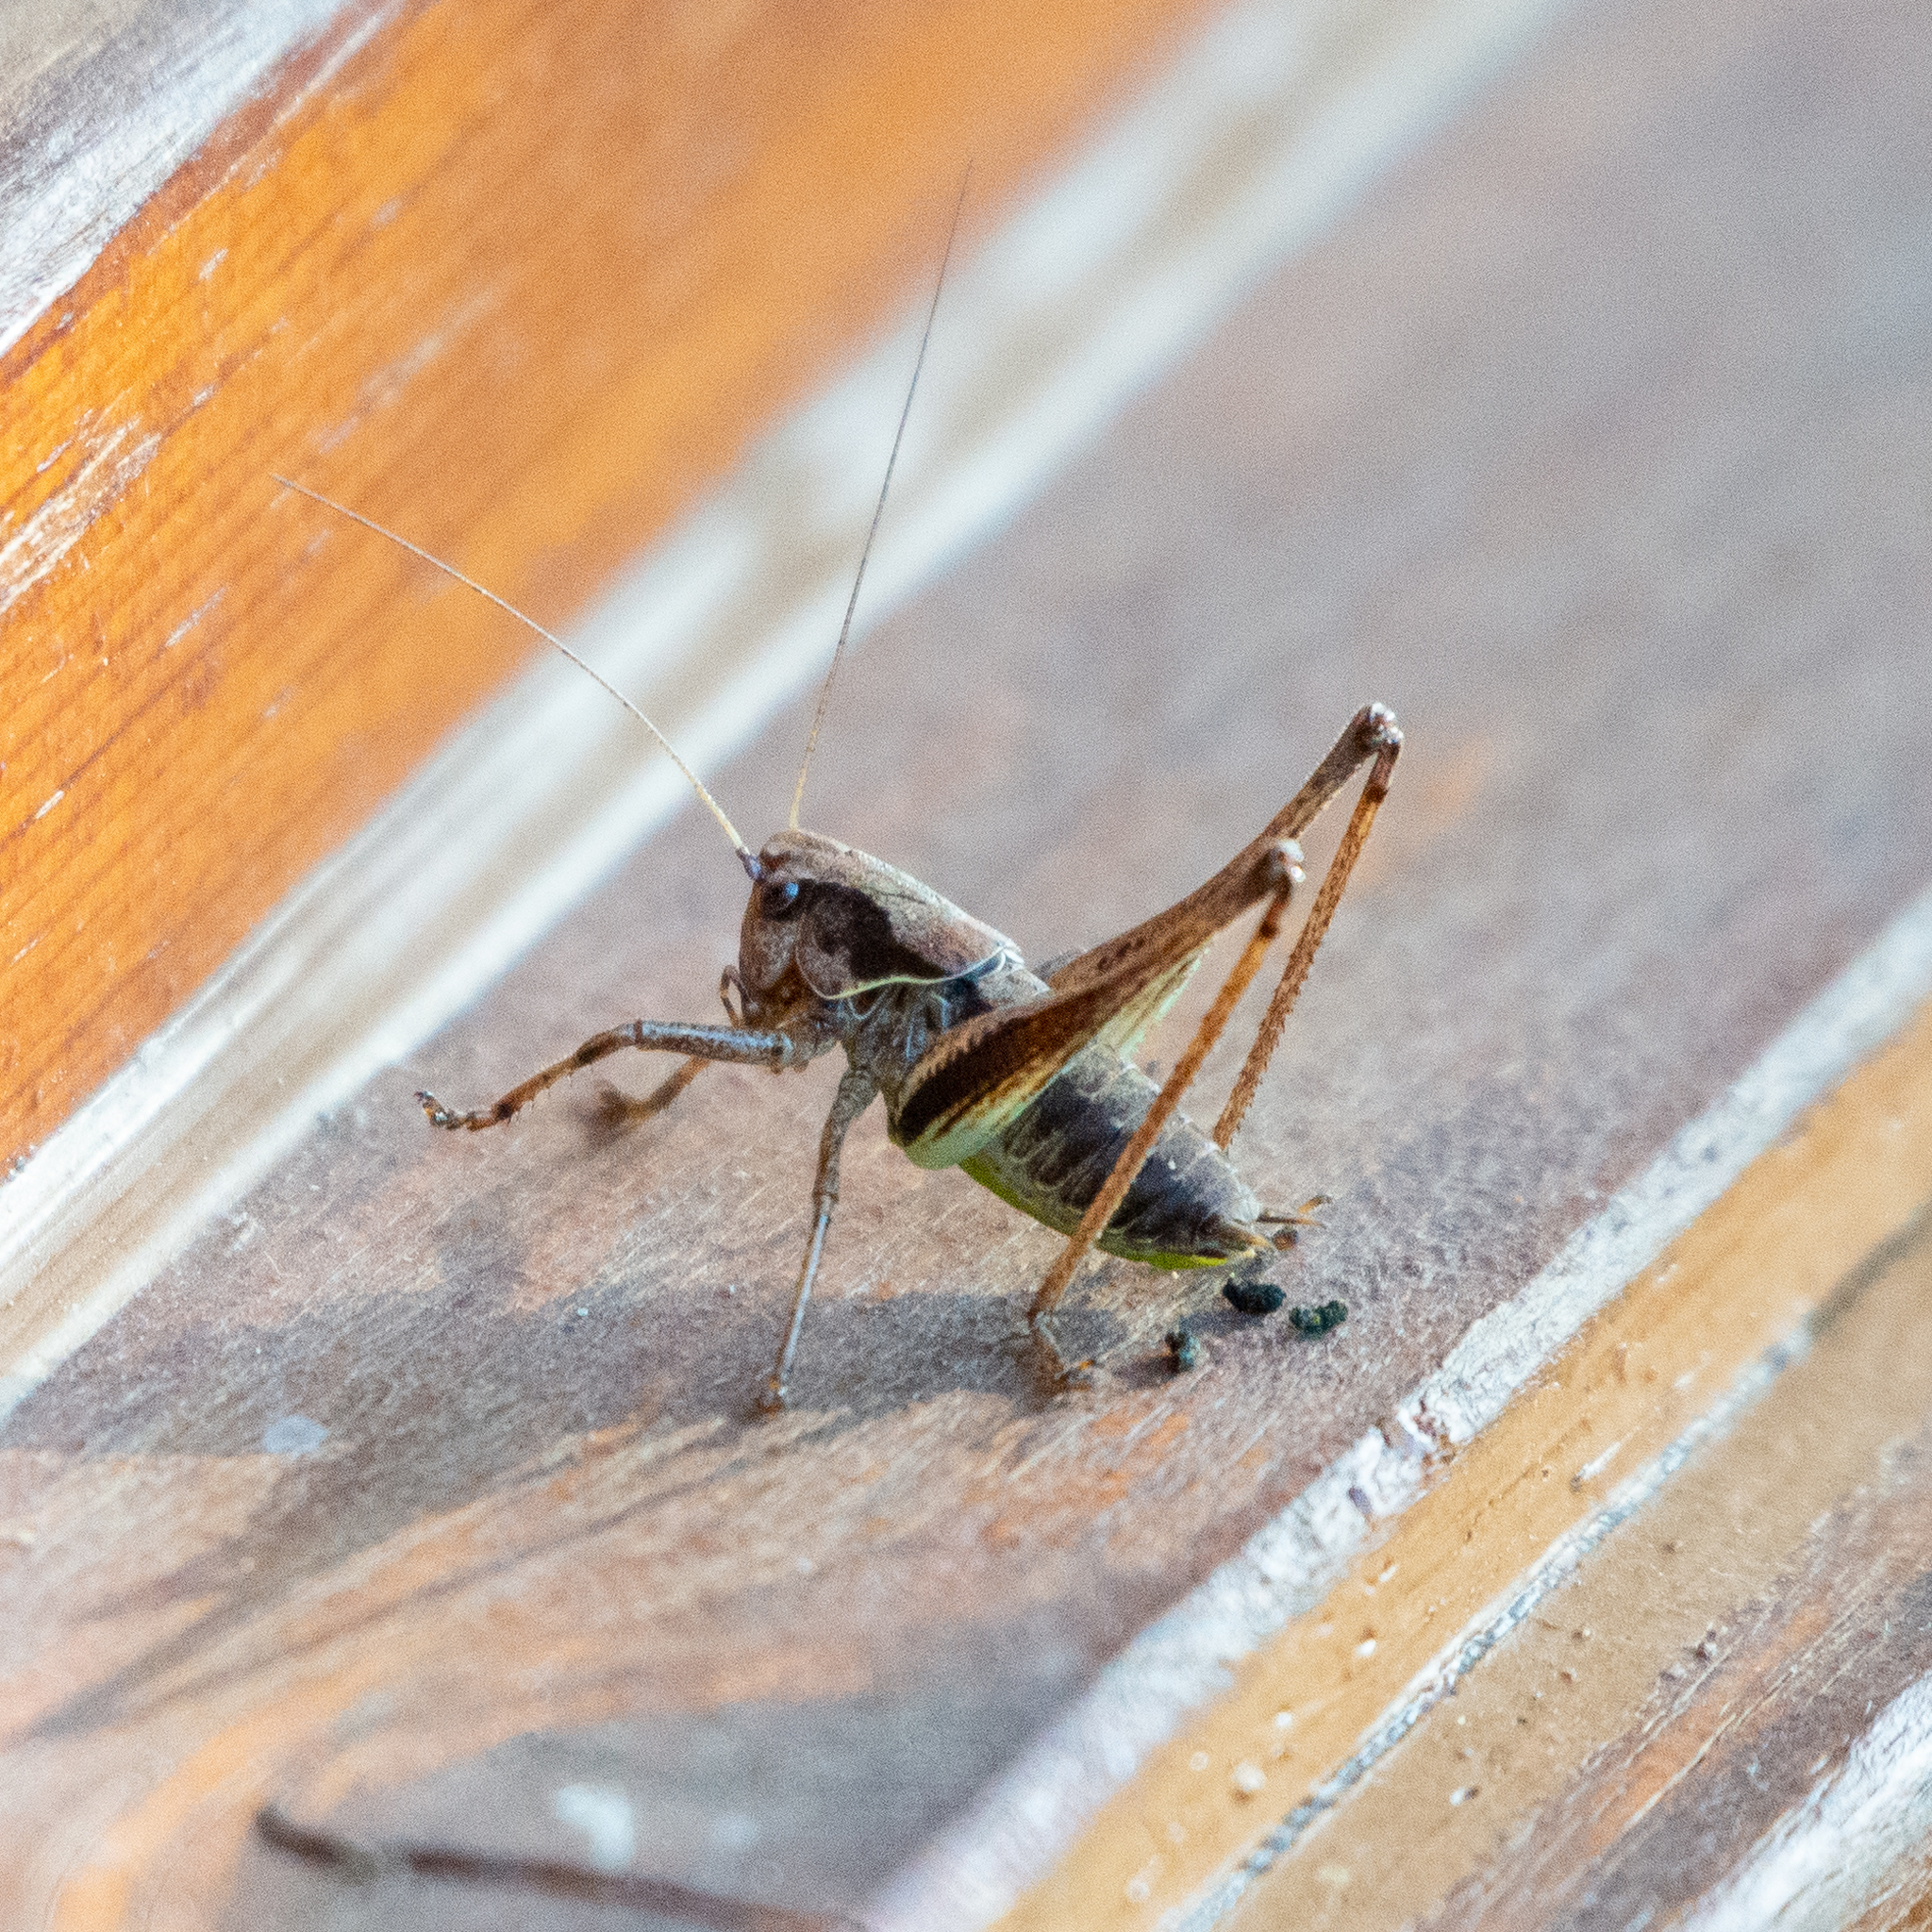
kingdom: Animalia
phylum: Arthropoda
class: Insecta
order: Orthoptera
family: Tettigoniidae
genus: Pholidoptera
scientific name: Pholidoptera griseoaptera
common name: Dark bush-cricket
